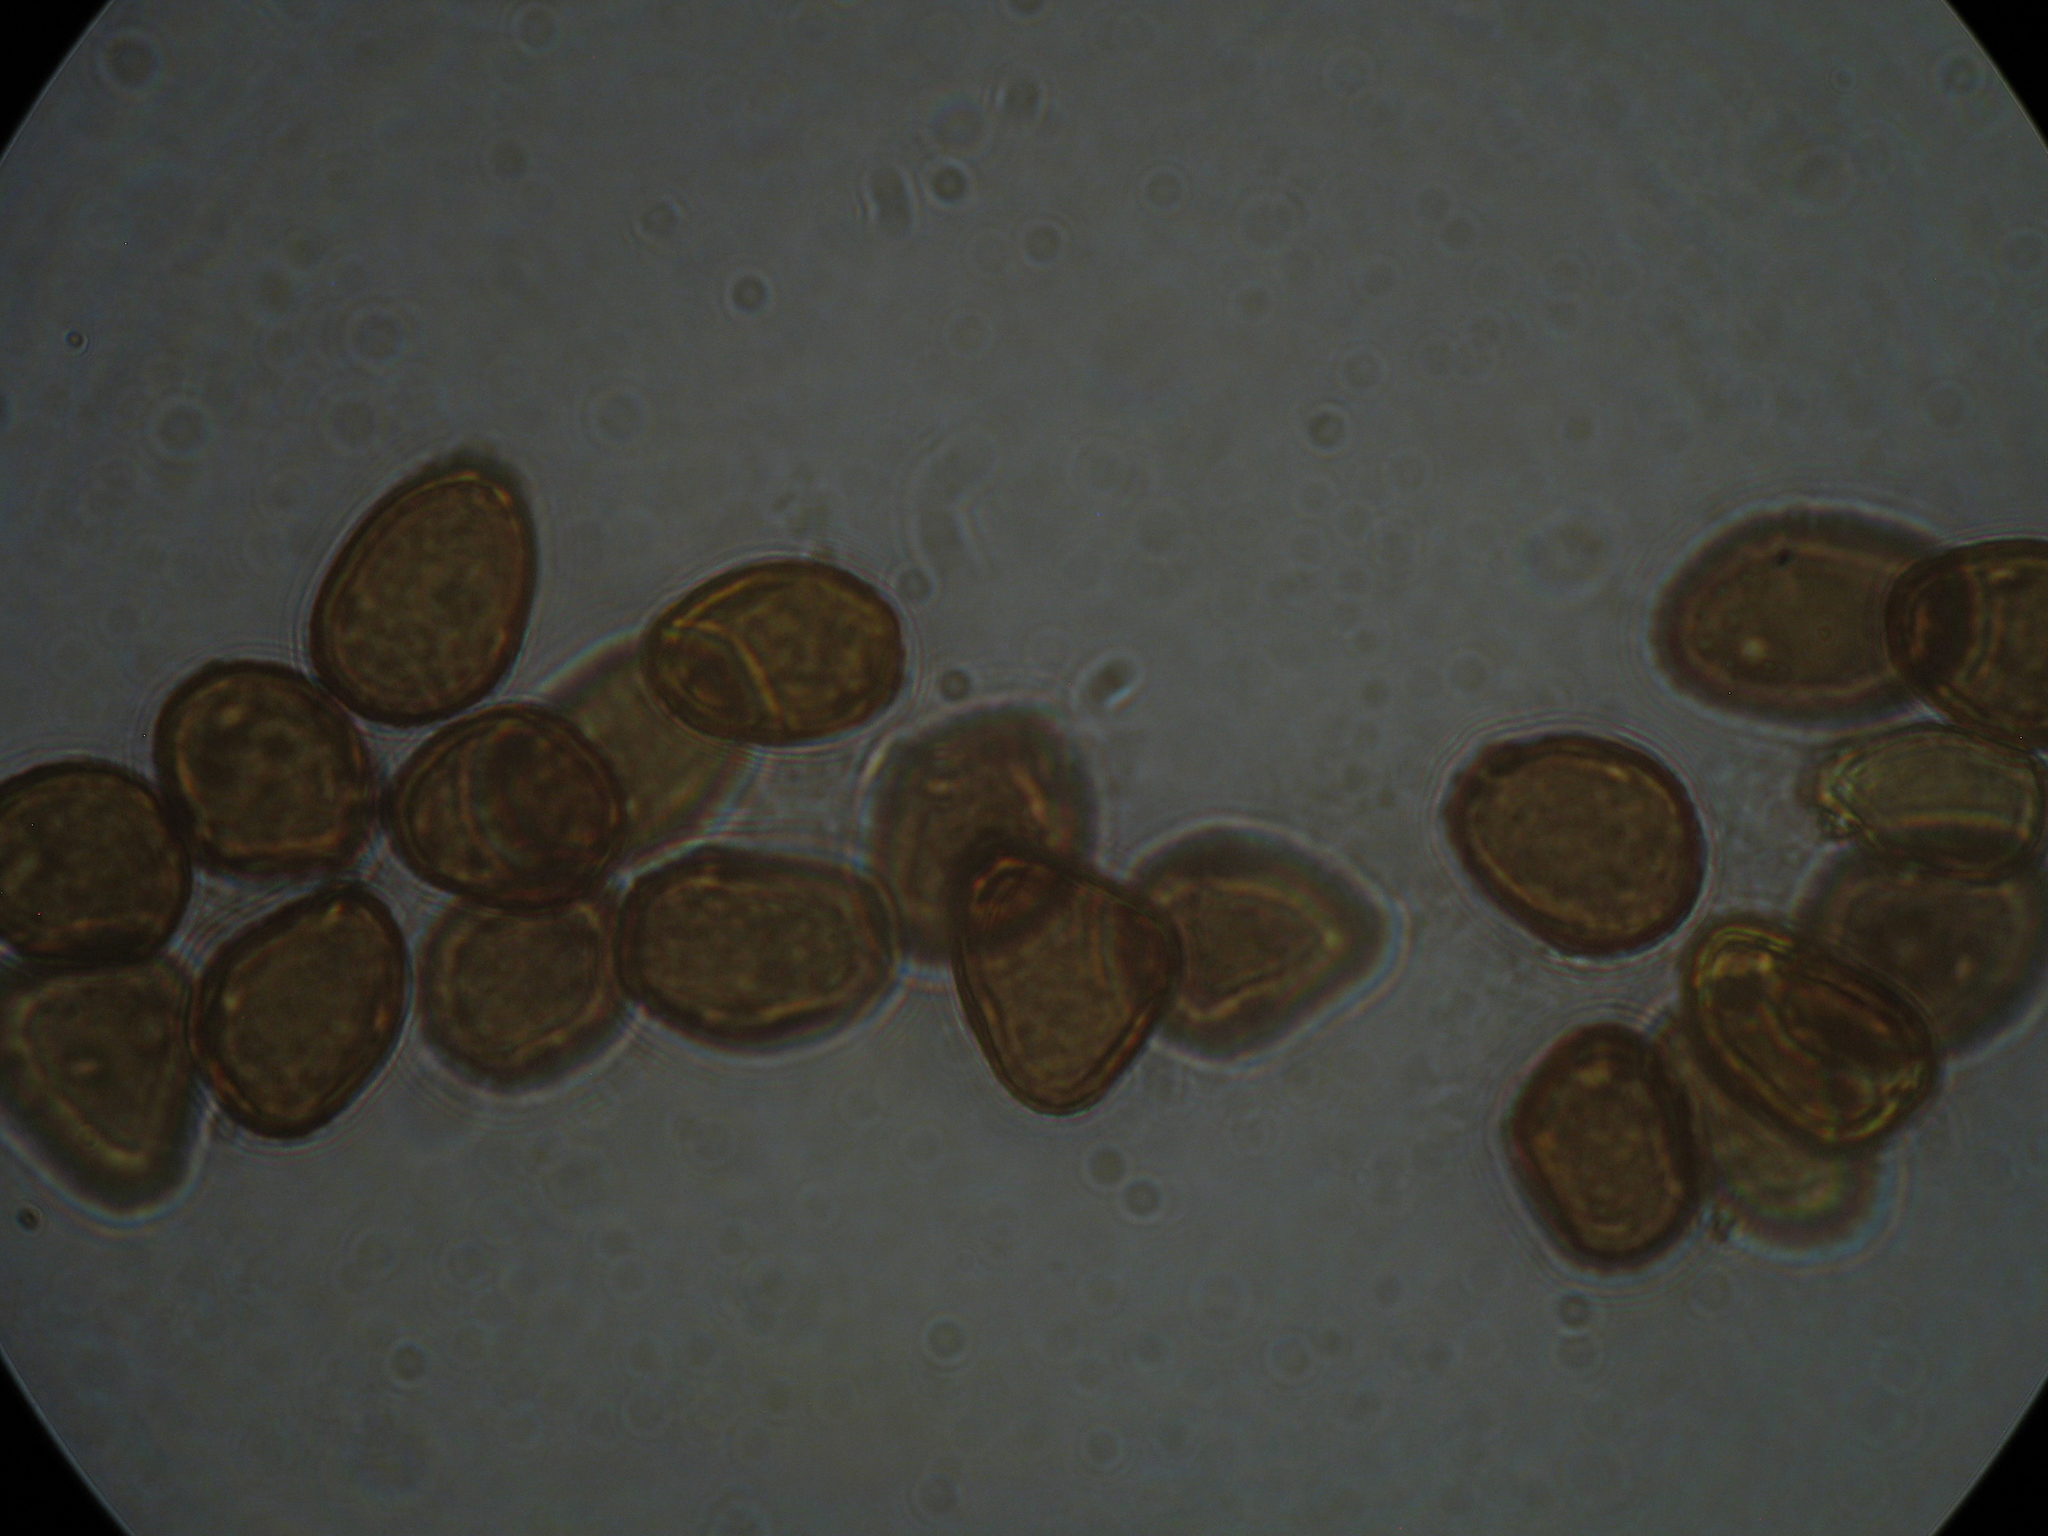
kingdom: Fungi
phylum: Basidiomycota
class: Pucciniomycetes
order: Pucciniales
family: Pucciniaceae
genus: Puccinia
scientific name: Puccinia juncophila
